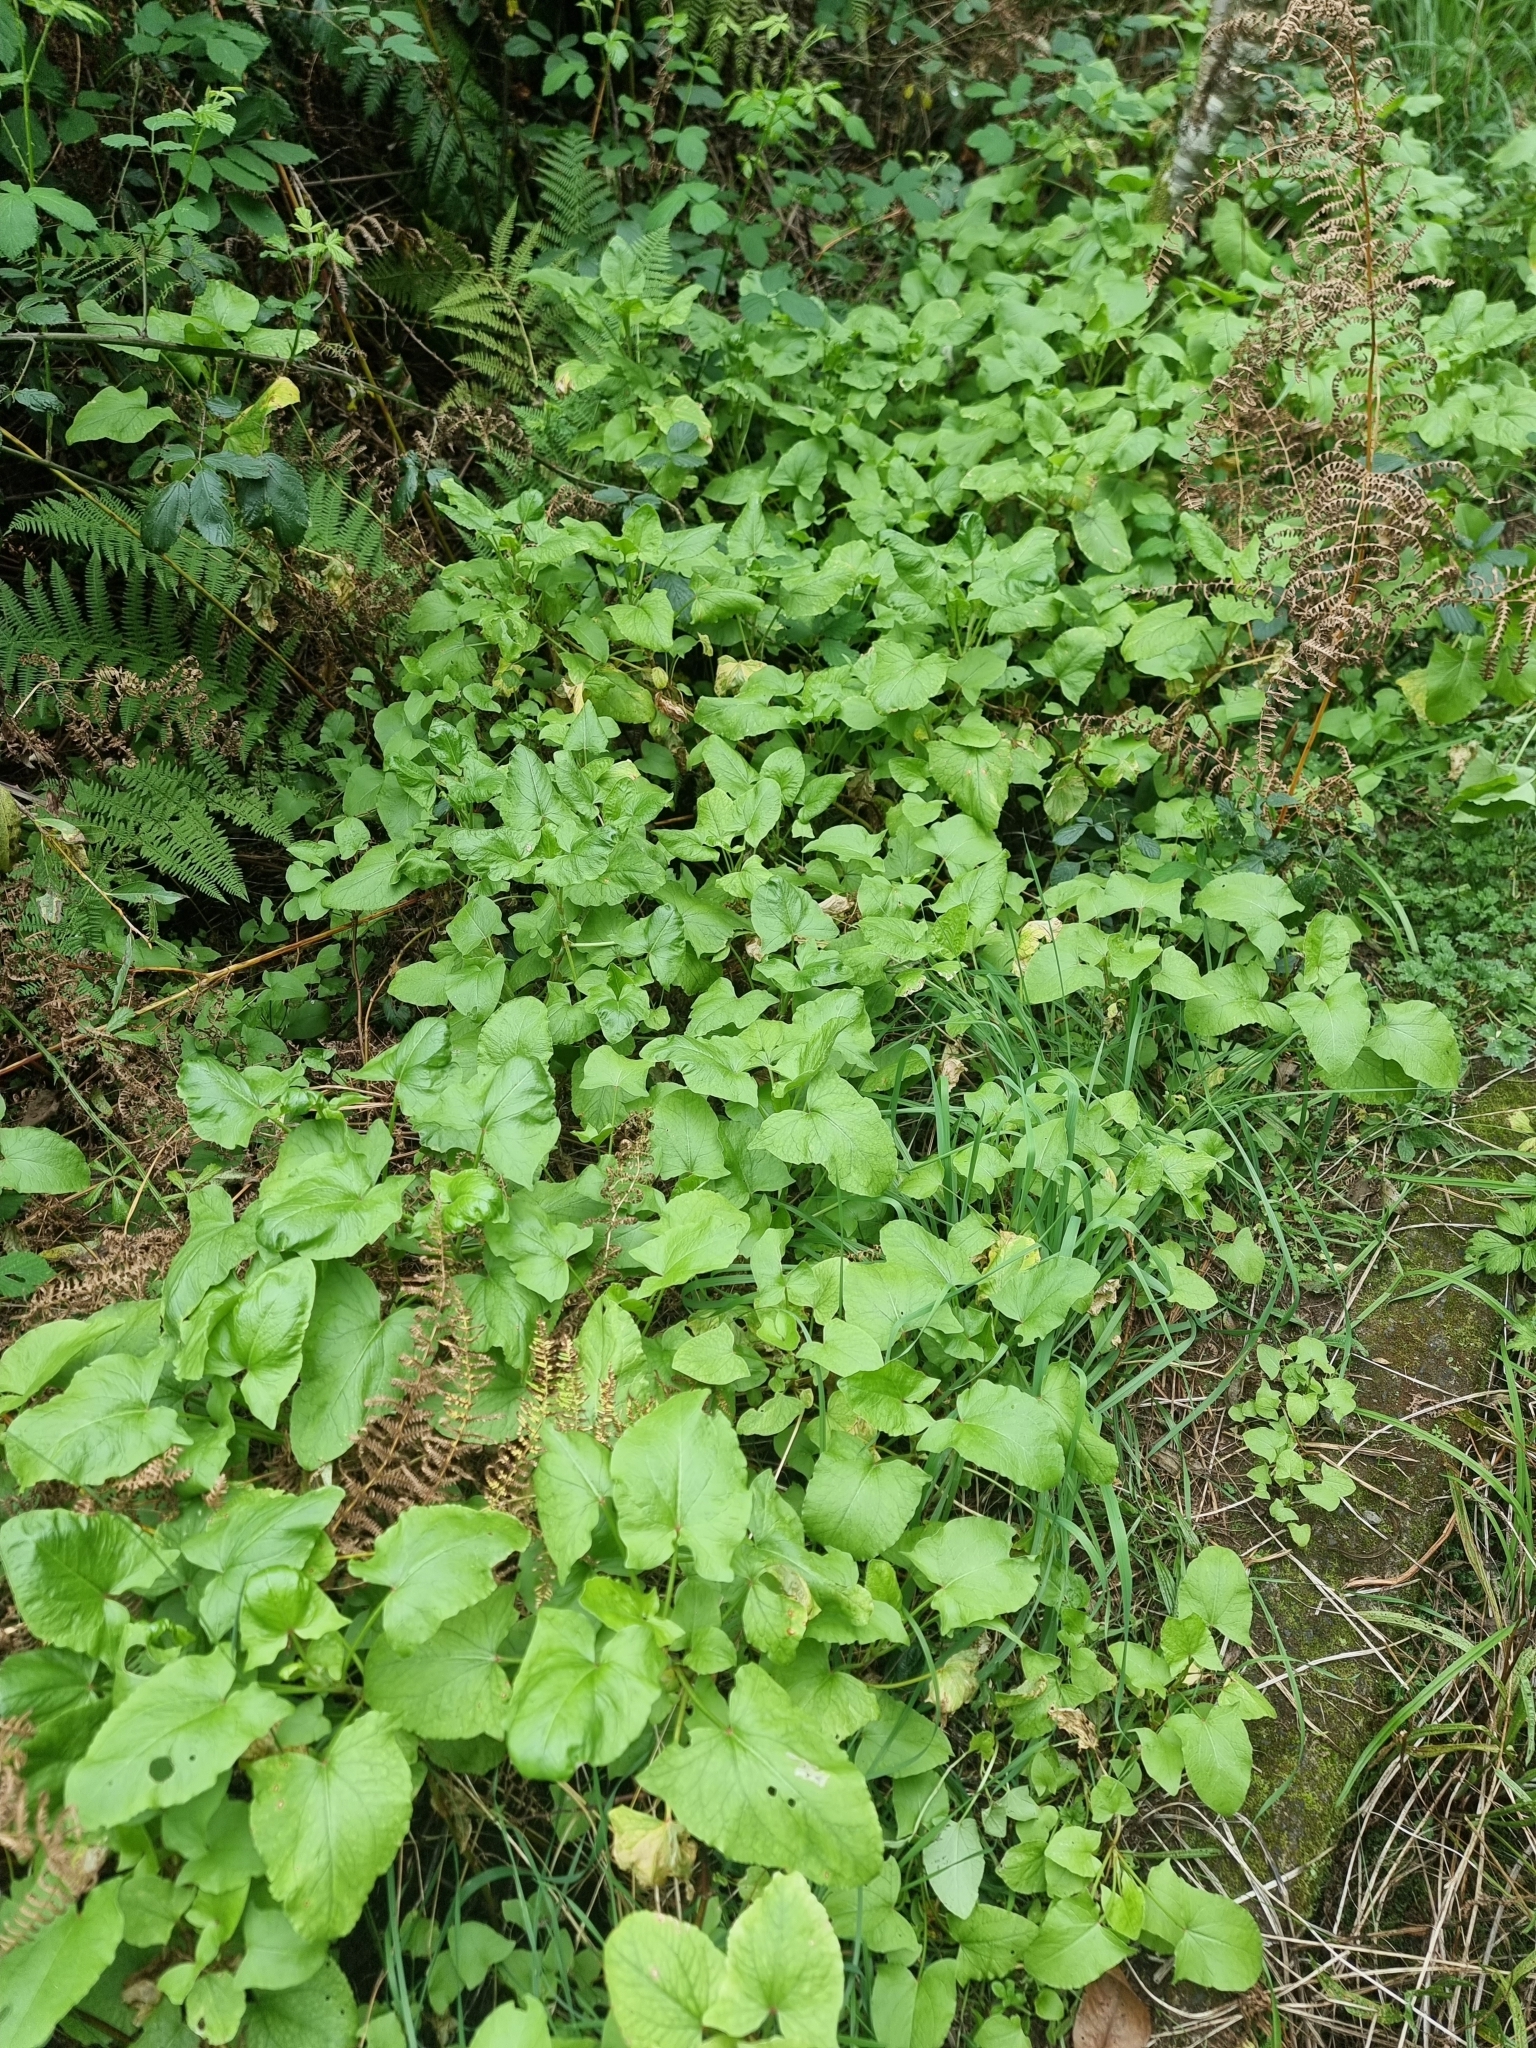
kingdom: Plantae
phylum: Tracheophyta
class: Magnoliopsida
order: Caryophyllales
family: Polygonaceae
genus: Rumex
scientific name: Rumex maderensis
